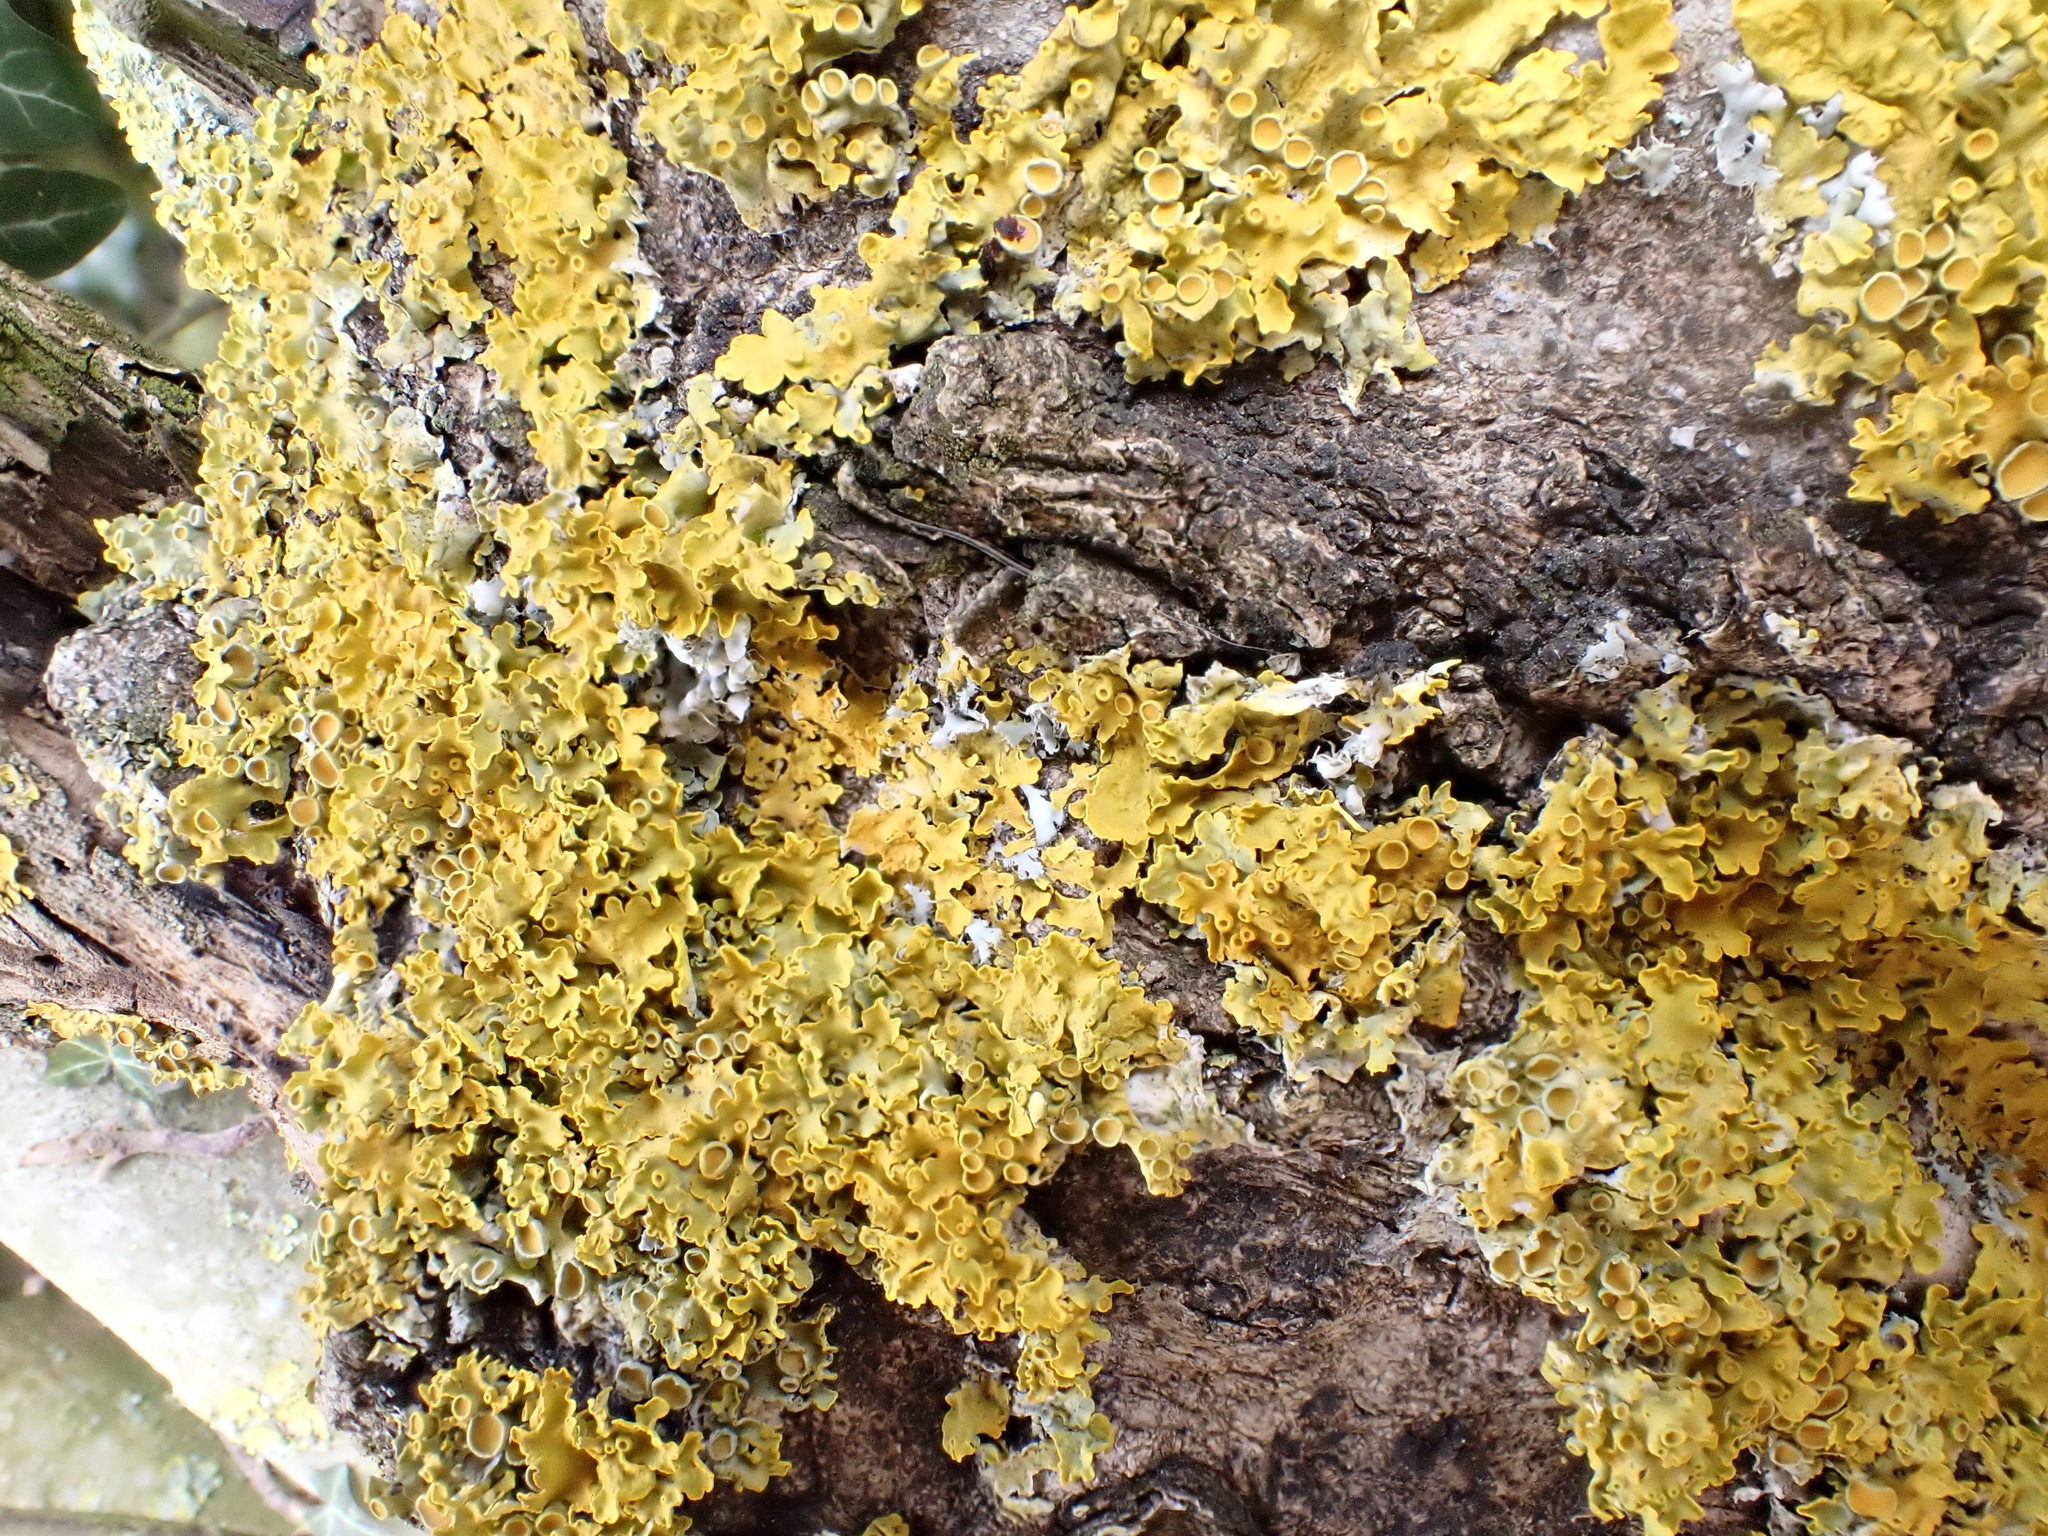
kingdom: Fungi
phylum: Ascomycota
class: Lecanoromycetes
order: Teloschistales
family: Teloschistaceae
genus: Xanthoria
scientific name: Xanthoria parietina
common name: Common orange lichen
